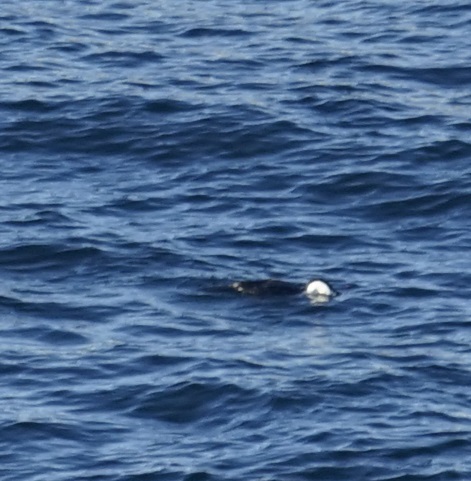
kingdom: Animalia
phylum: Chordata
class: Aves
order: Suliformes
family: Phalacrocoracidae
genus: Phalacrocorax
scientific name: Phalacrocorax varius
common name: Pied cormorant
